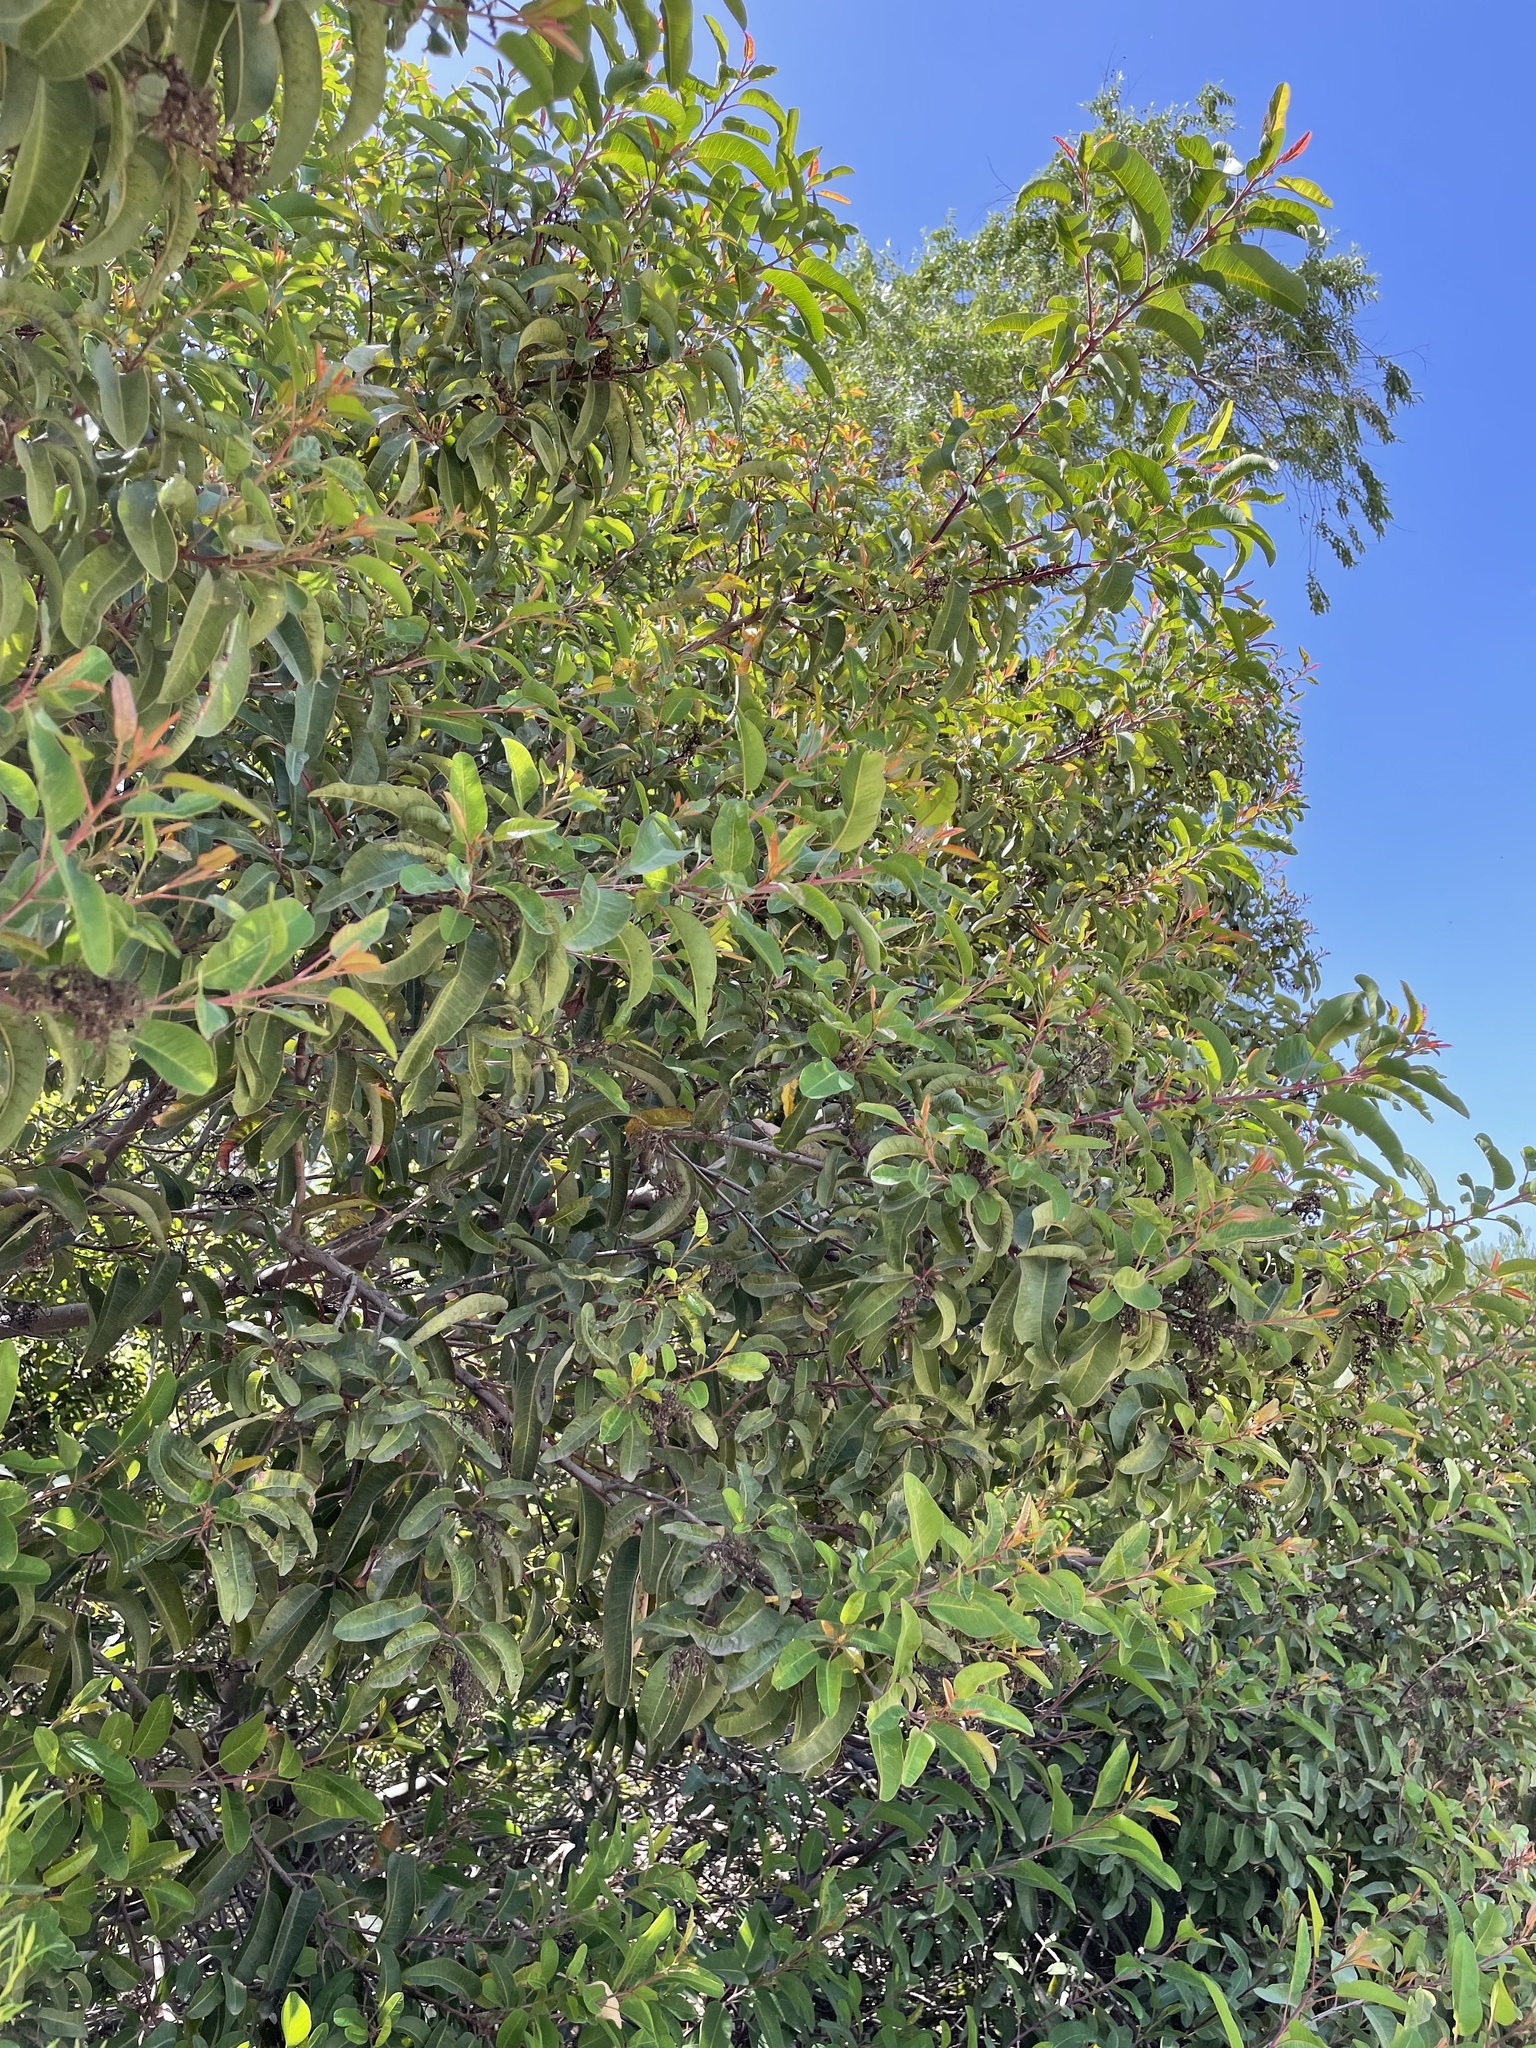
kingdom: Plantae
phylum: Tracheophyta
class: Magnoliopsida
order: Sapindales
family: Anacardiaceae
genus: Malosma
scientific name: Malosma laurina
